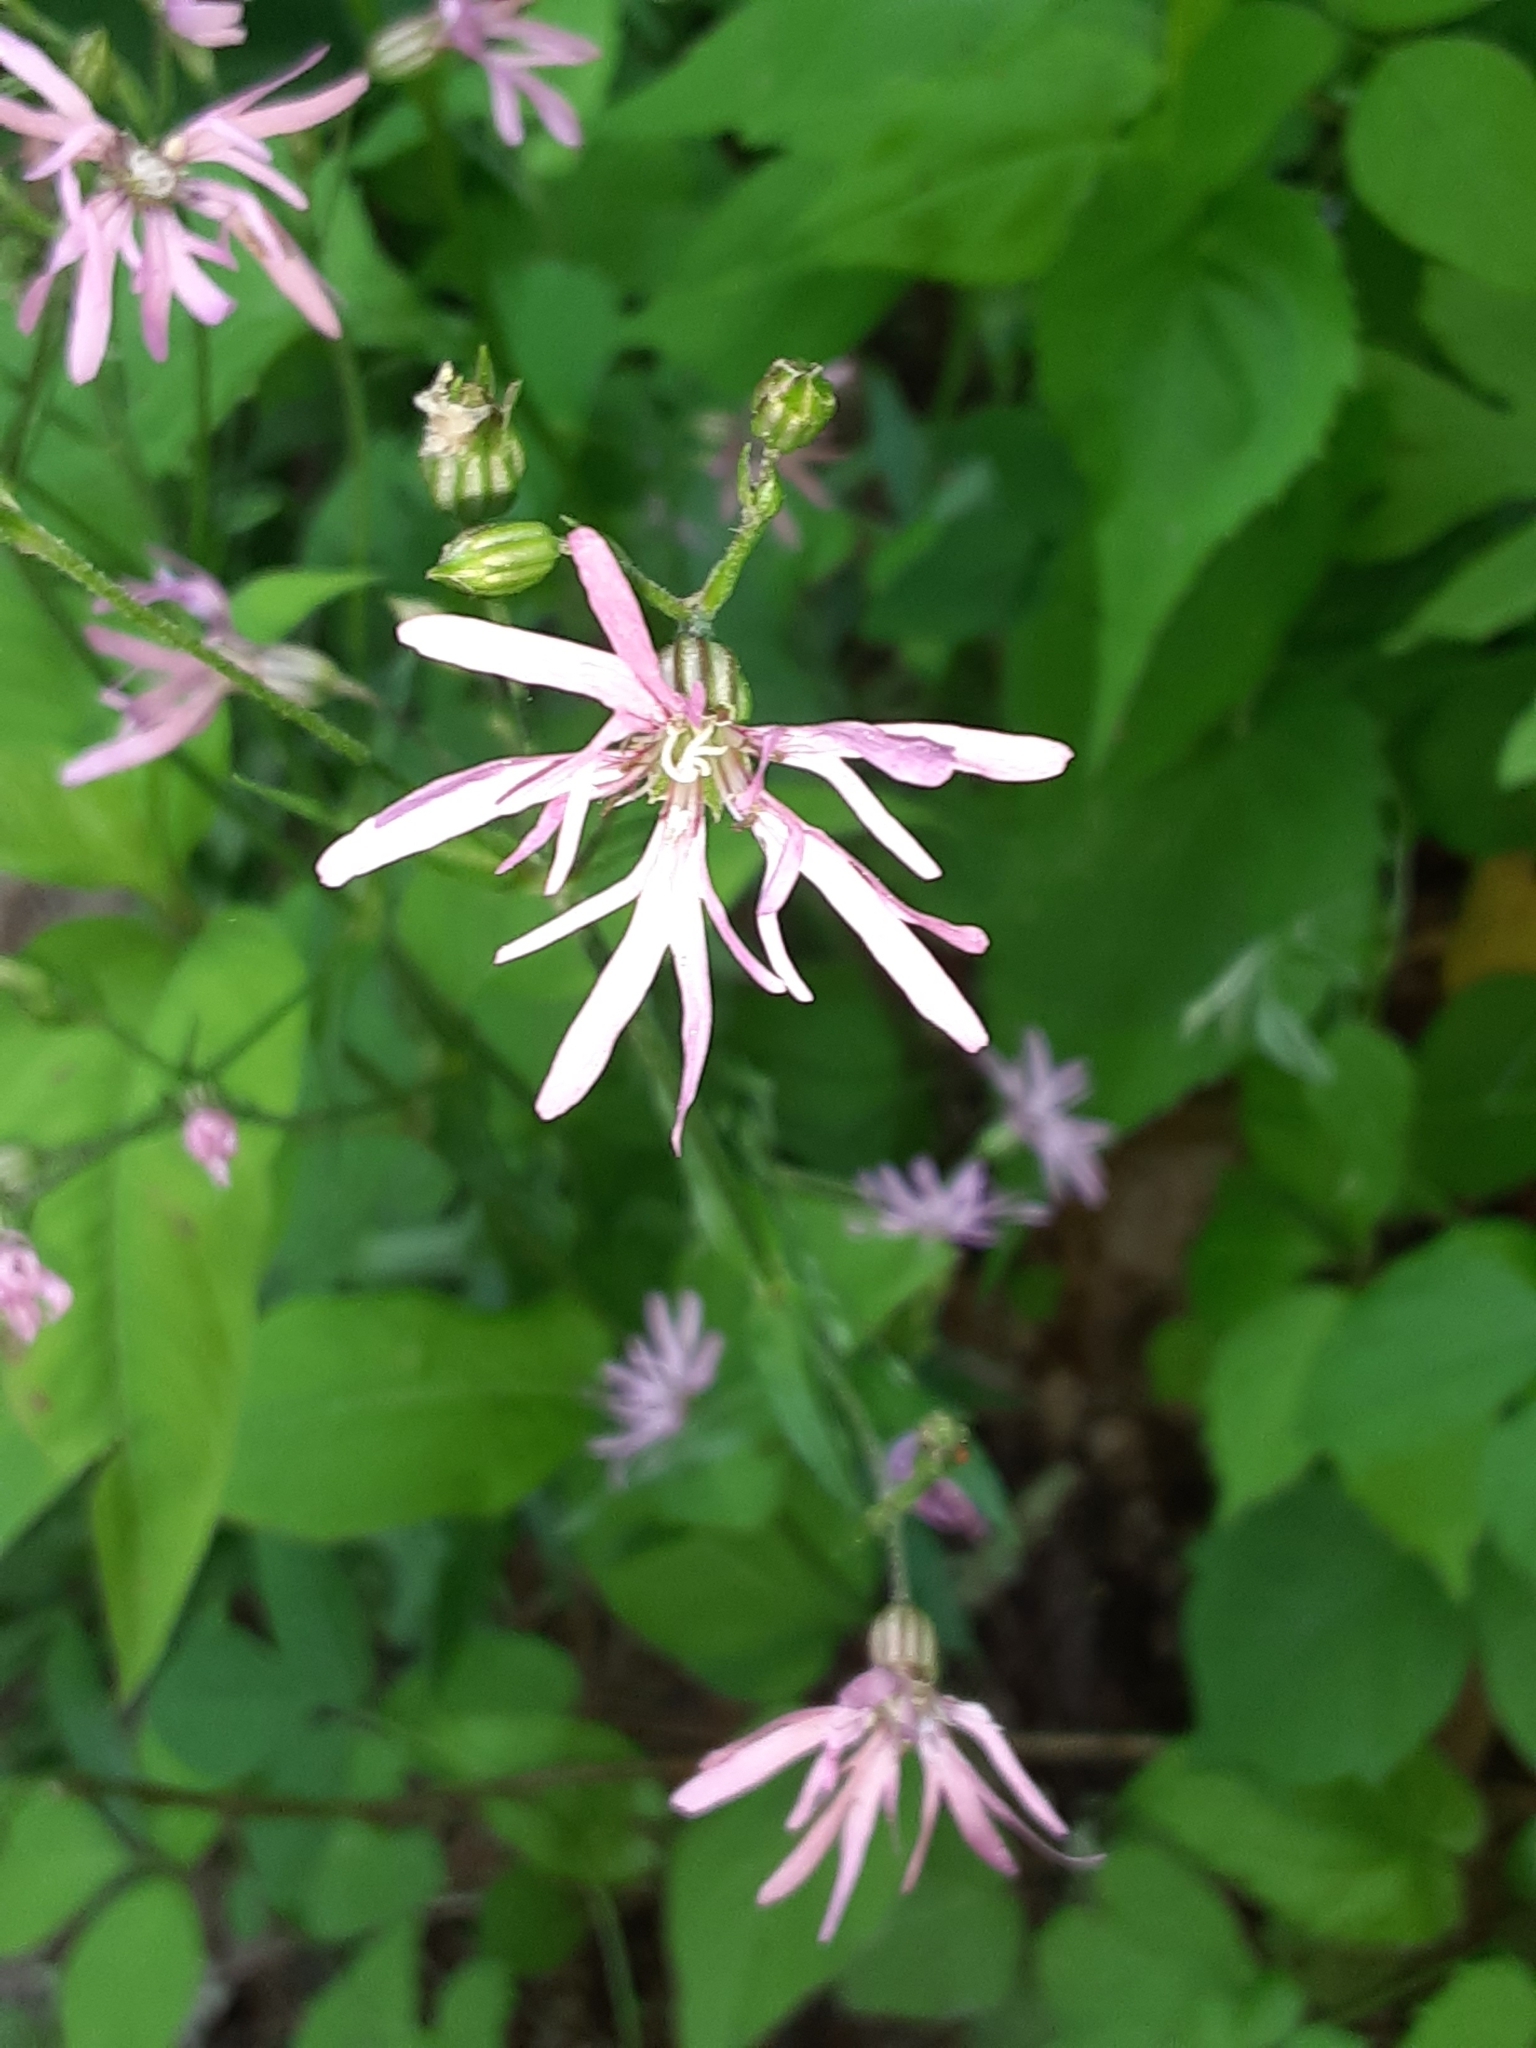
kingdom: Plantae
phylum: Tracheophyta
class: Magnoliopsida
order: Caryophyllales
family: Caryophyllaceae
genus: Silene
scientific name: Silene flos-cuculi
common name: Ragged-robin
